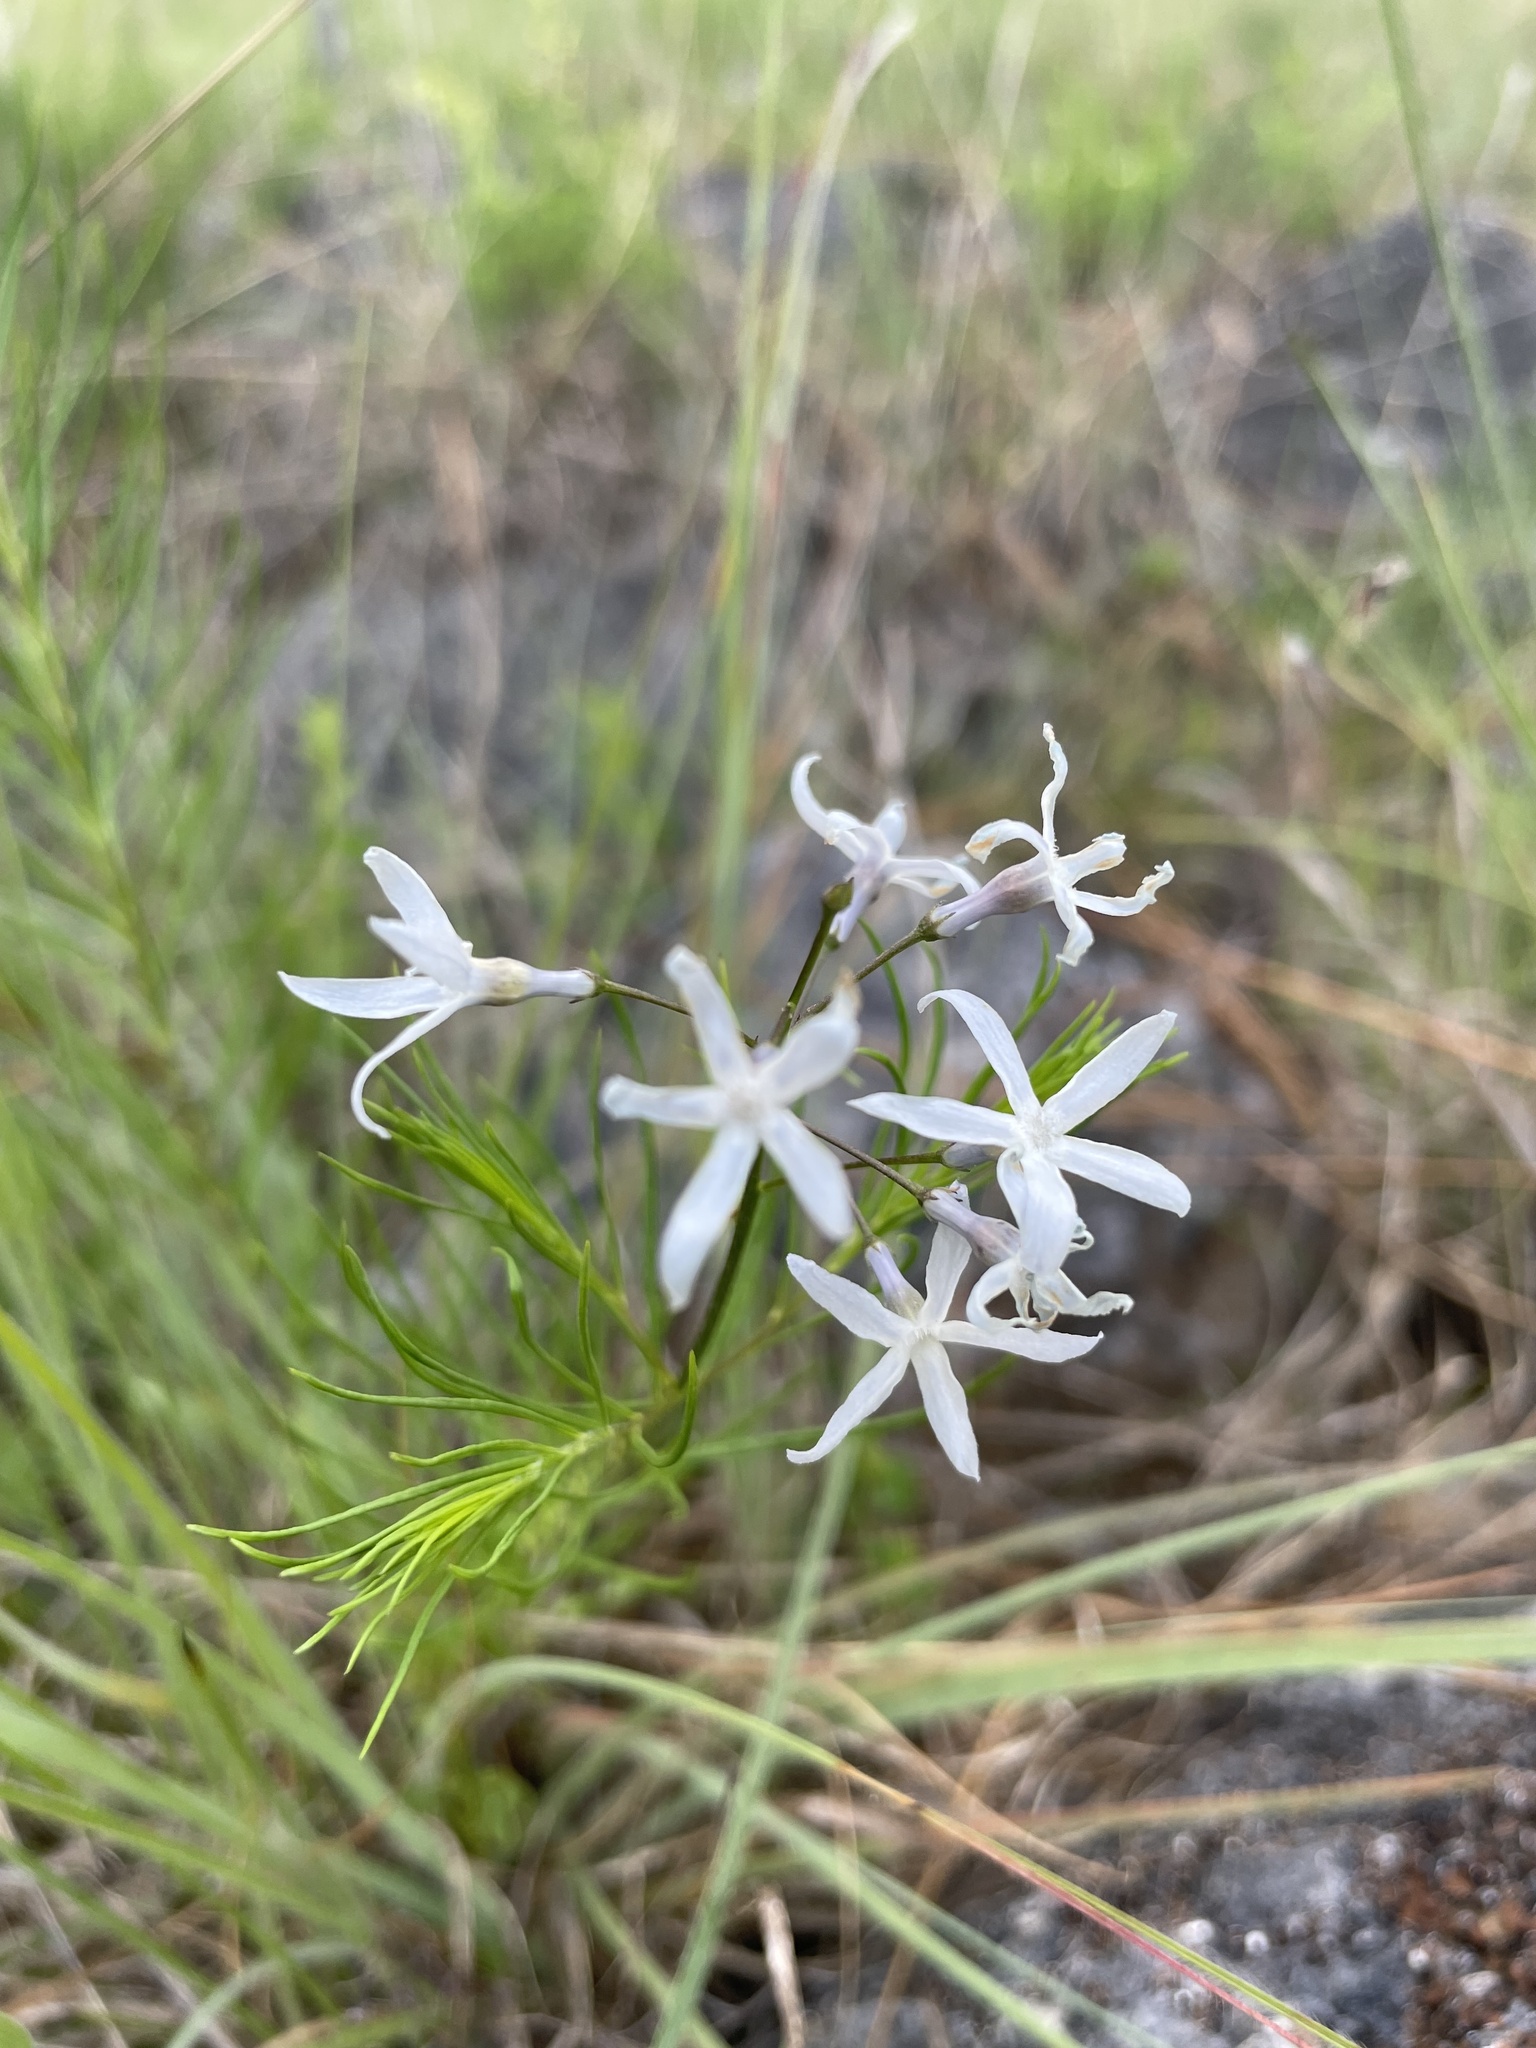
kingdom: Plantae
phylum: Tracheophyta
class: Magnoliopsida
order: Gentianales
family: Apocynaceae
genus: Amsonia
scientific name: Amsonia ciliata
